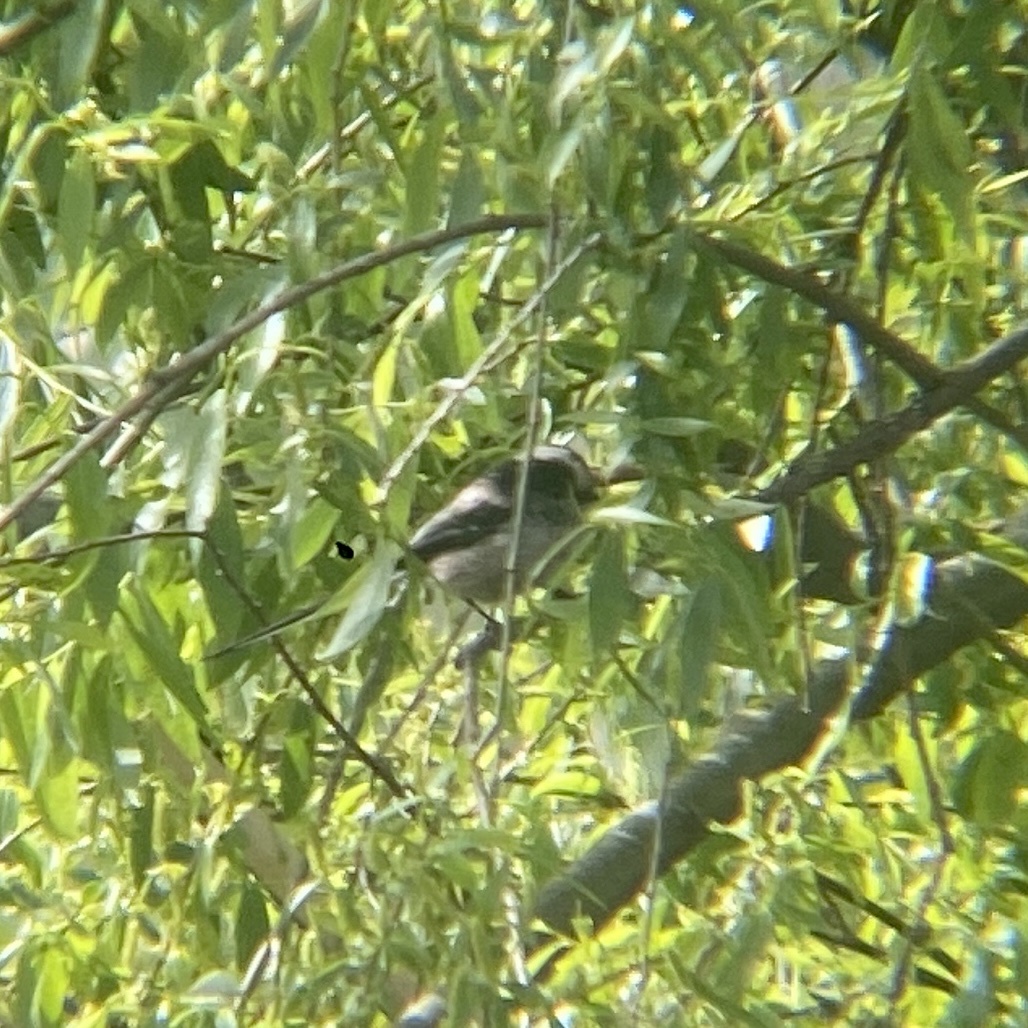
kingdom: Animalia
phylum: Chordata
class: Aves
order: Passeriformes
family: Aegithalidae
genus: Aegithalos
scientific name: Aegithalos caudatus
